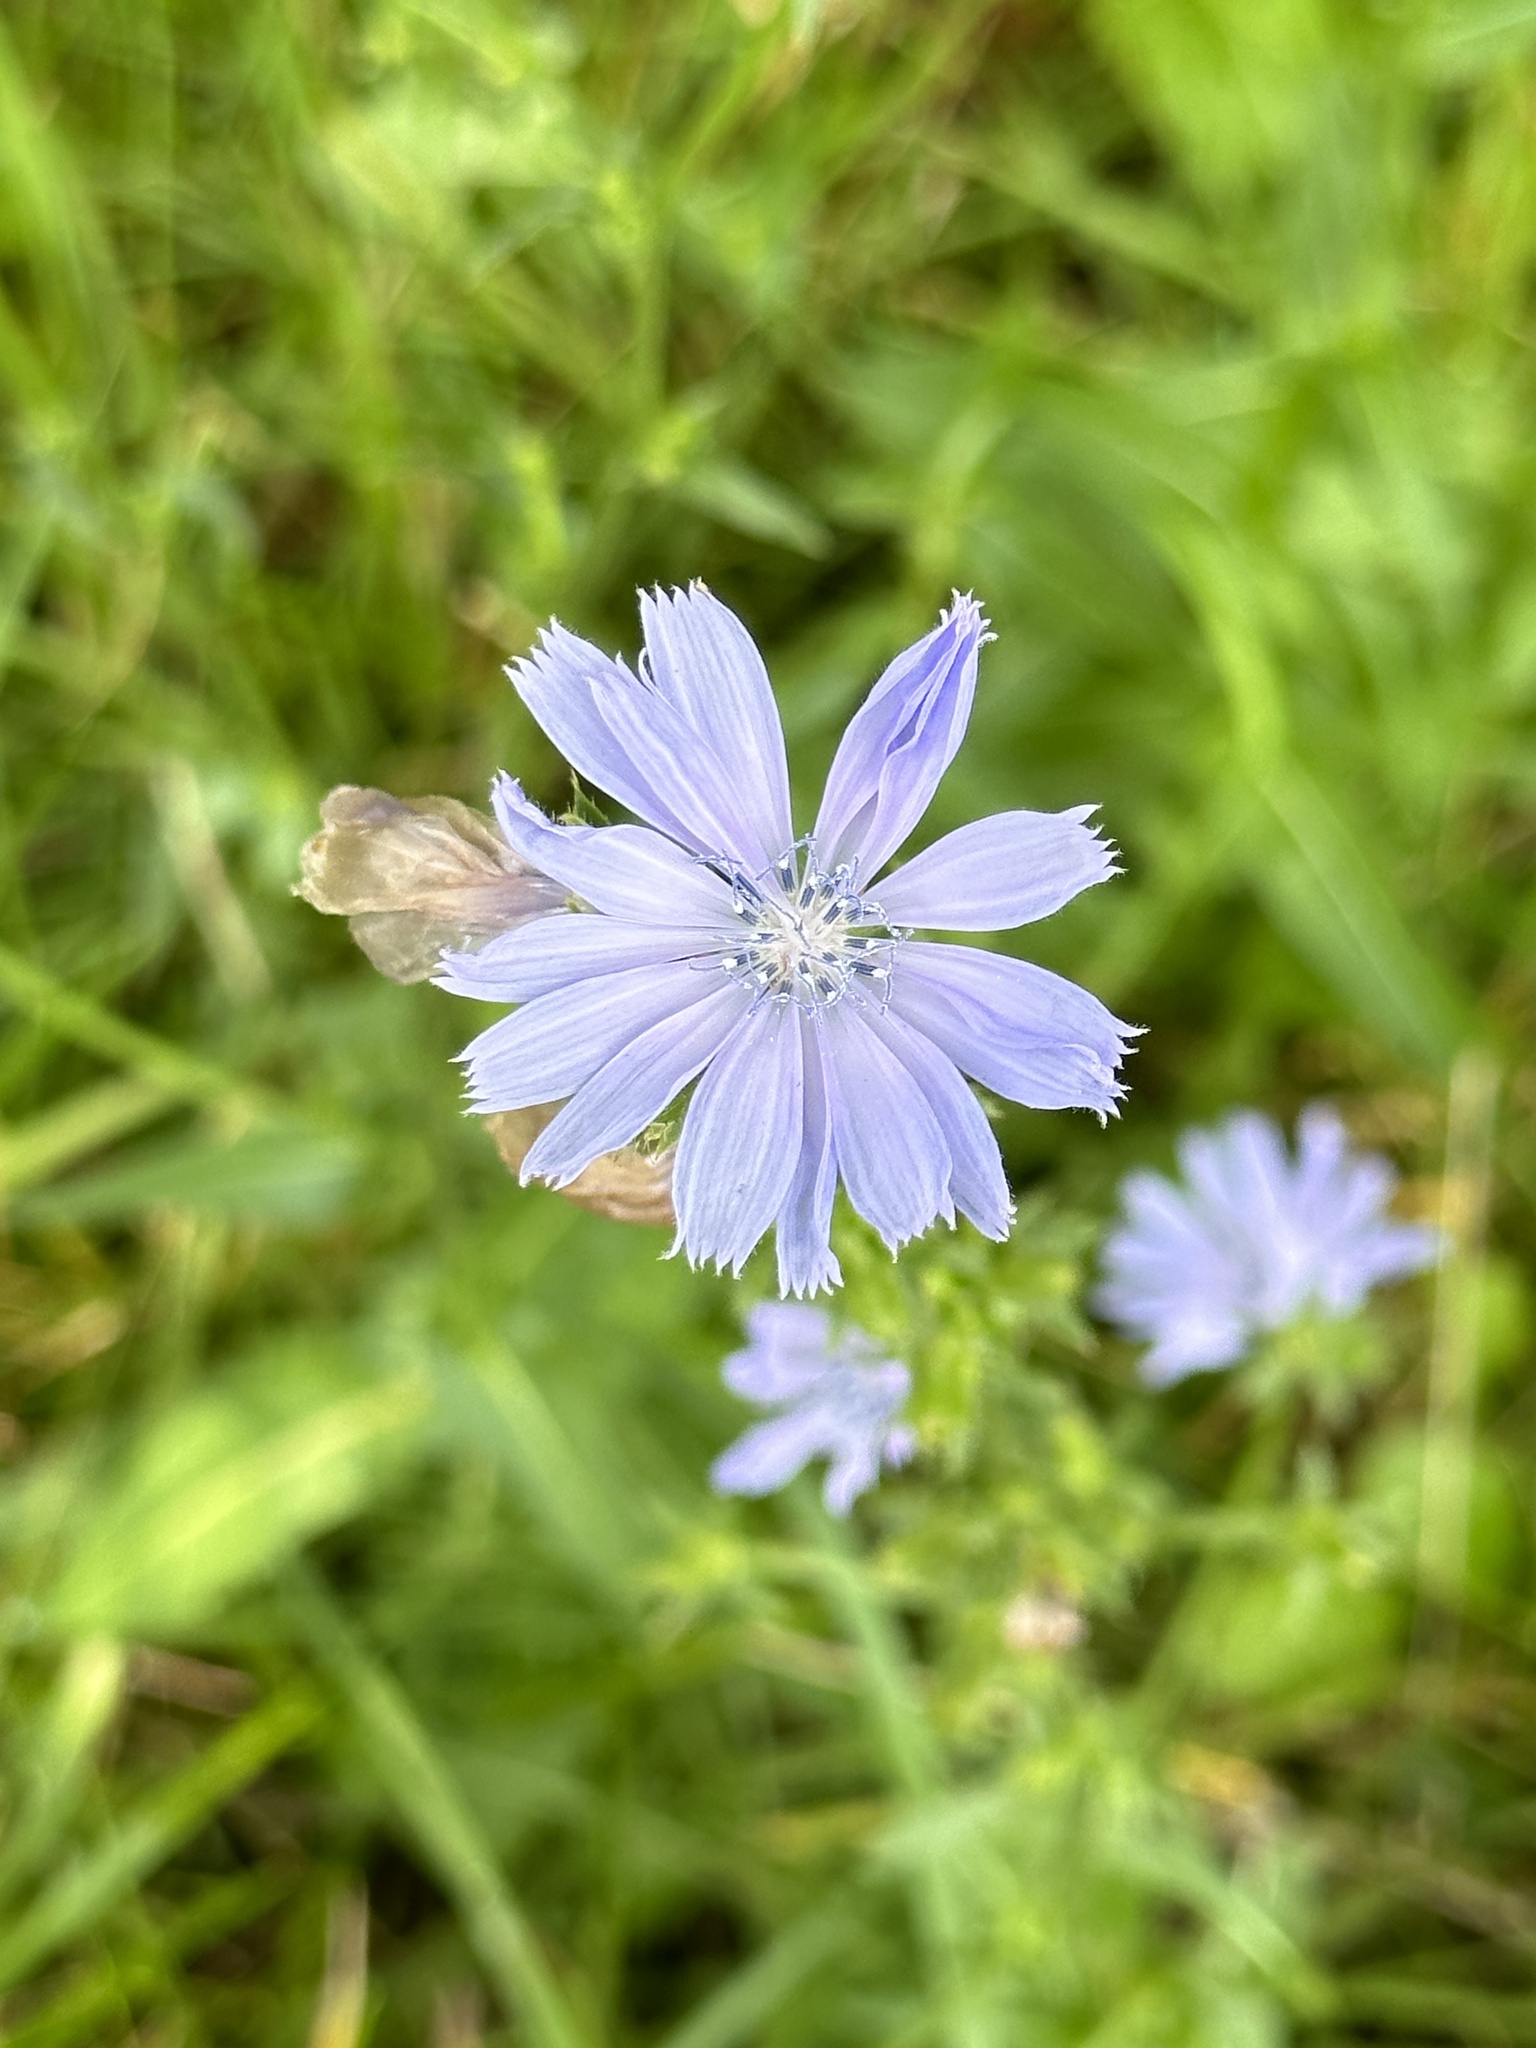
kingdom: Plantae
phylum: Tracheophyta
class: Magnoliopsida
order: Asterales
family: Asteraceae
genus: Cichorium
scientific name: Cichorium intybus
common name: Chicory
